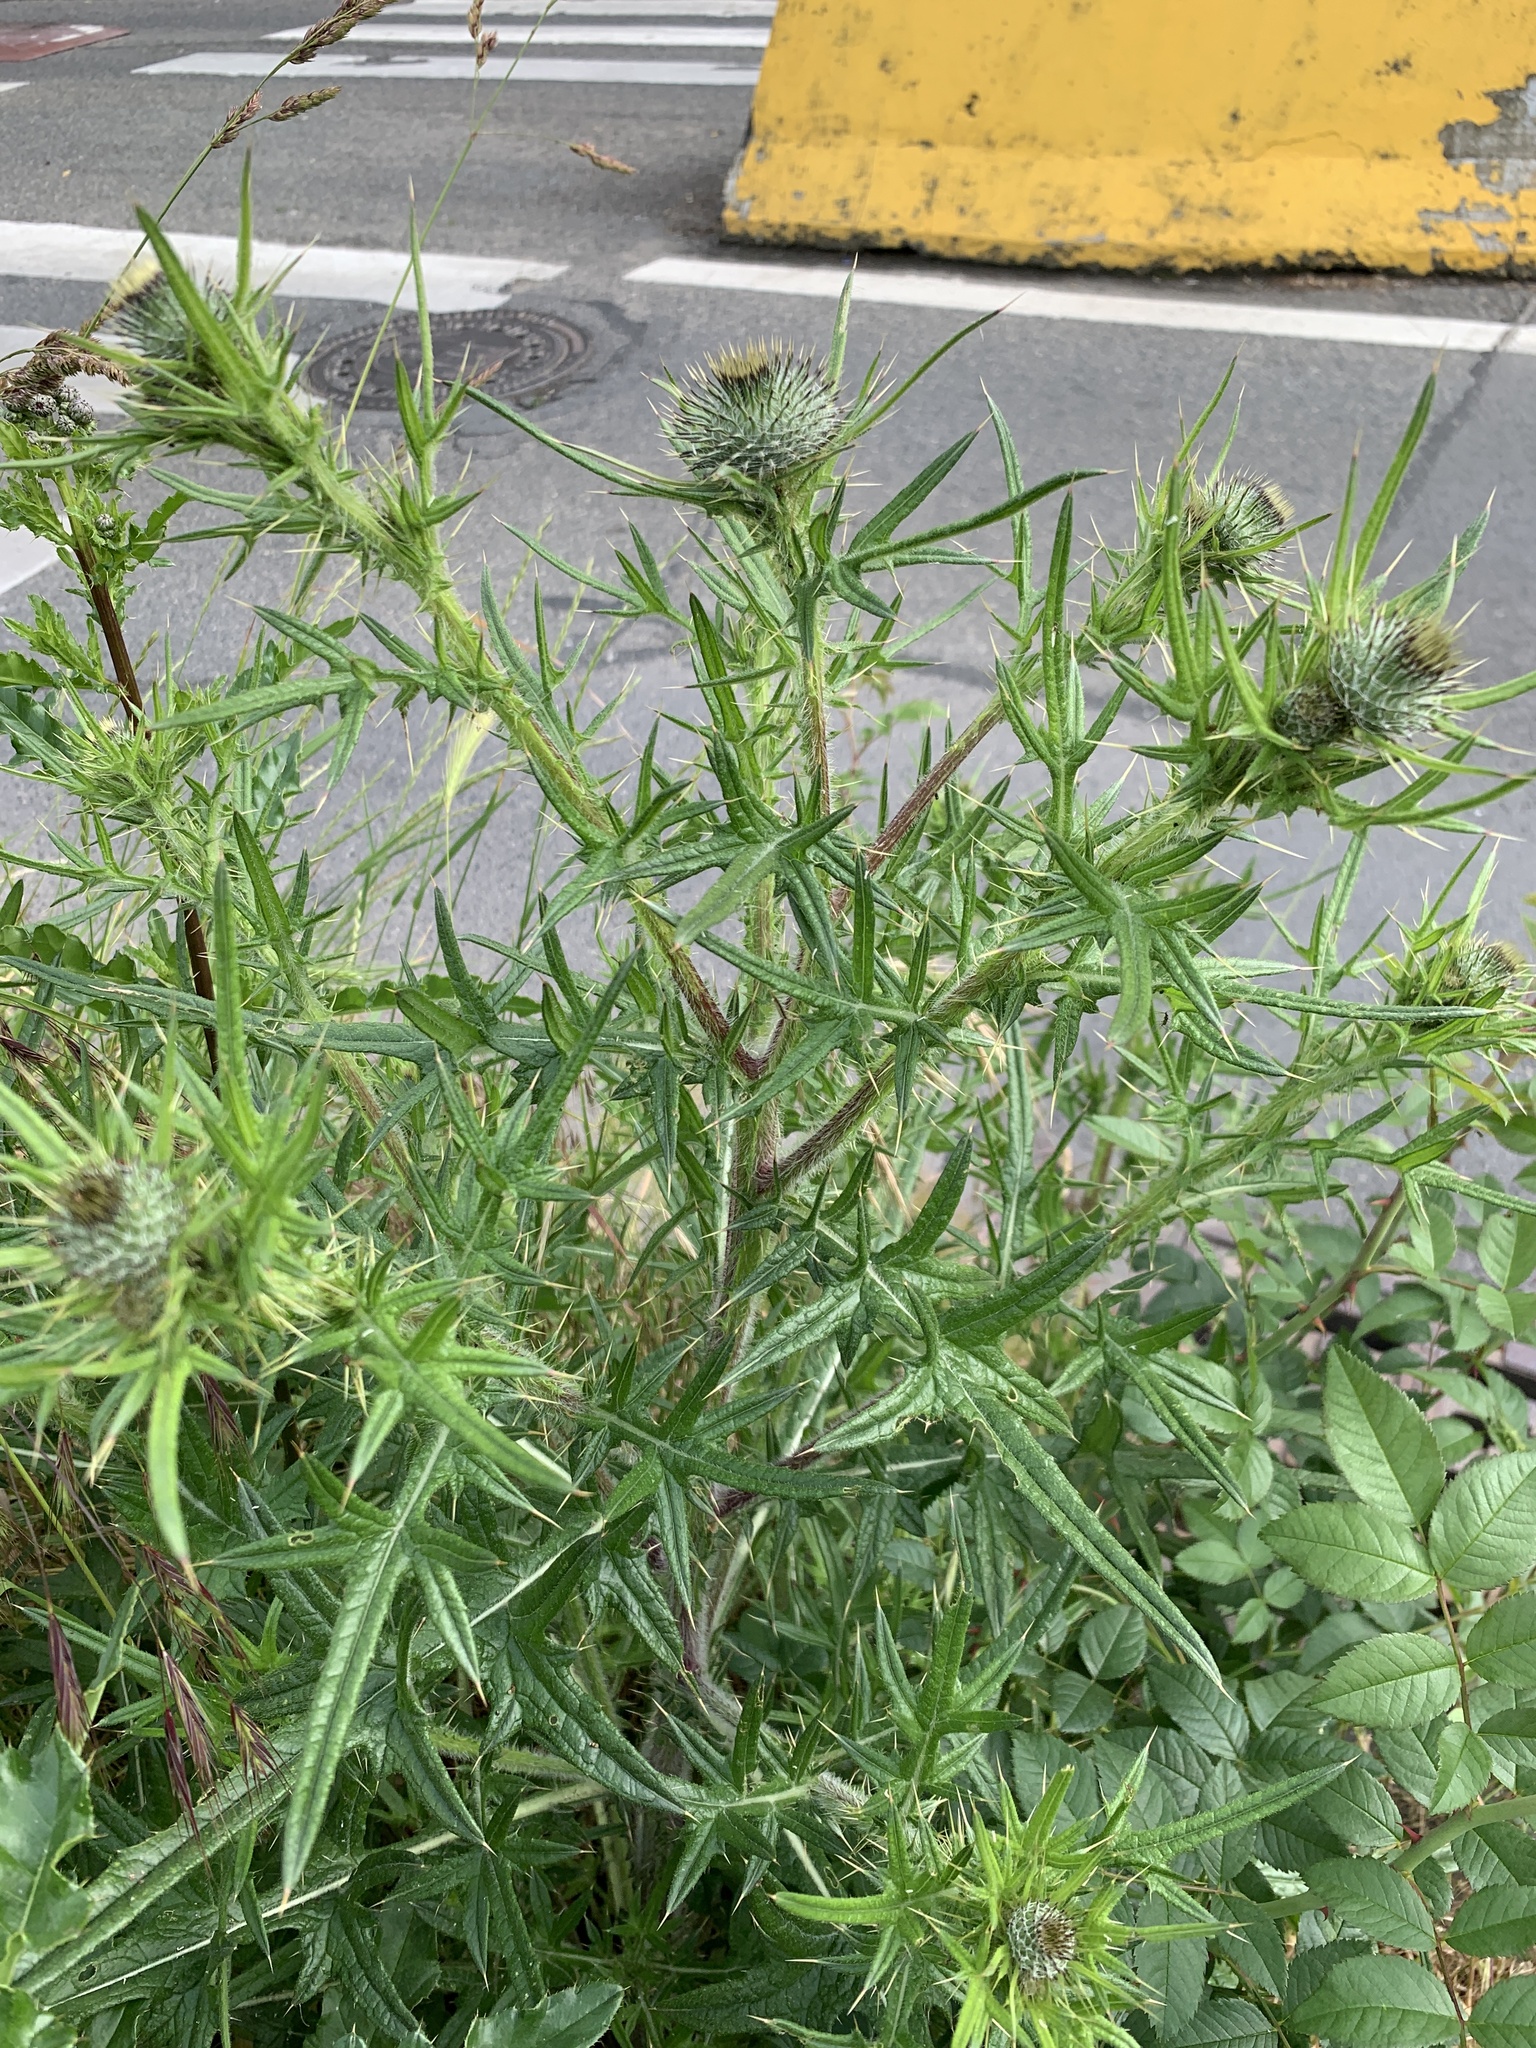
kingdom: Plantae
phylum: Tracheophyta
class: Magnoliopsida
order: Asterales
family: Asteraceae
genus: Cirsium
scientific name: Cirsium vulgare
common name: Bull thistle
